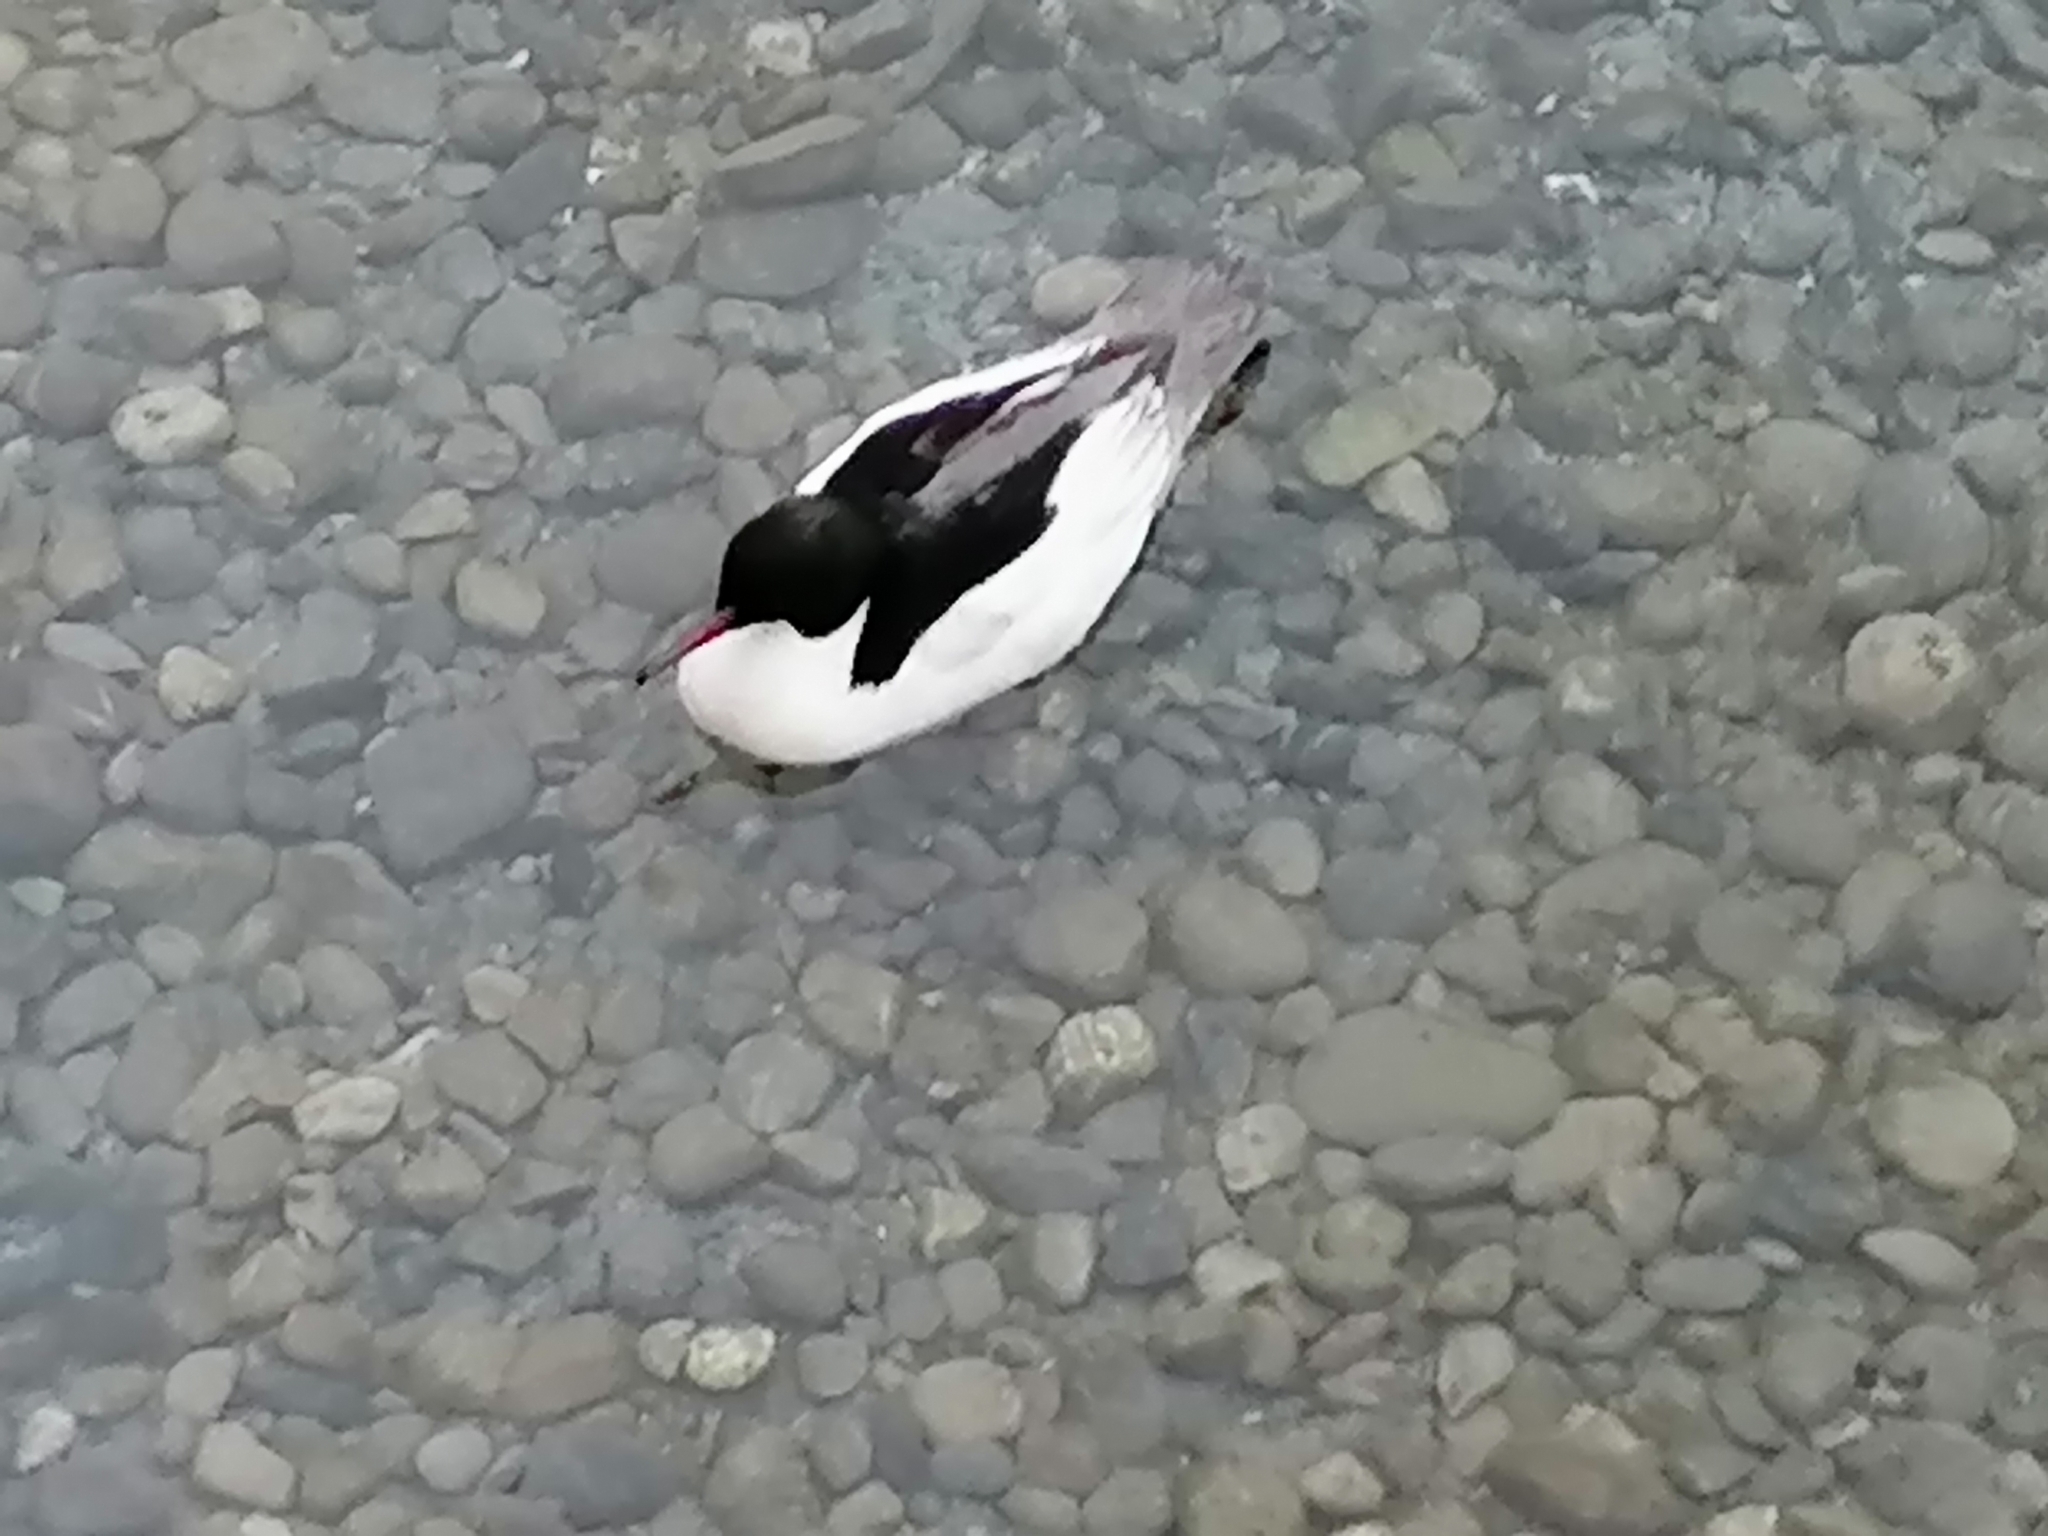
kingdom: Animalia
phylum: Chordata
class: Aves
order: Anseriformes
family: Anatidae
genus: Mergus
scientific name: Mergus merganser
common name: Common merganser
